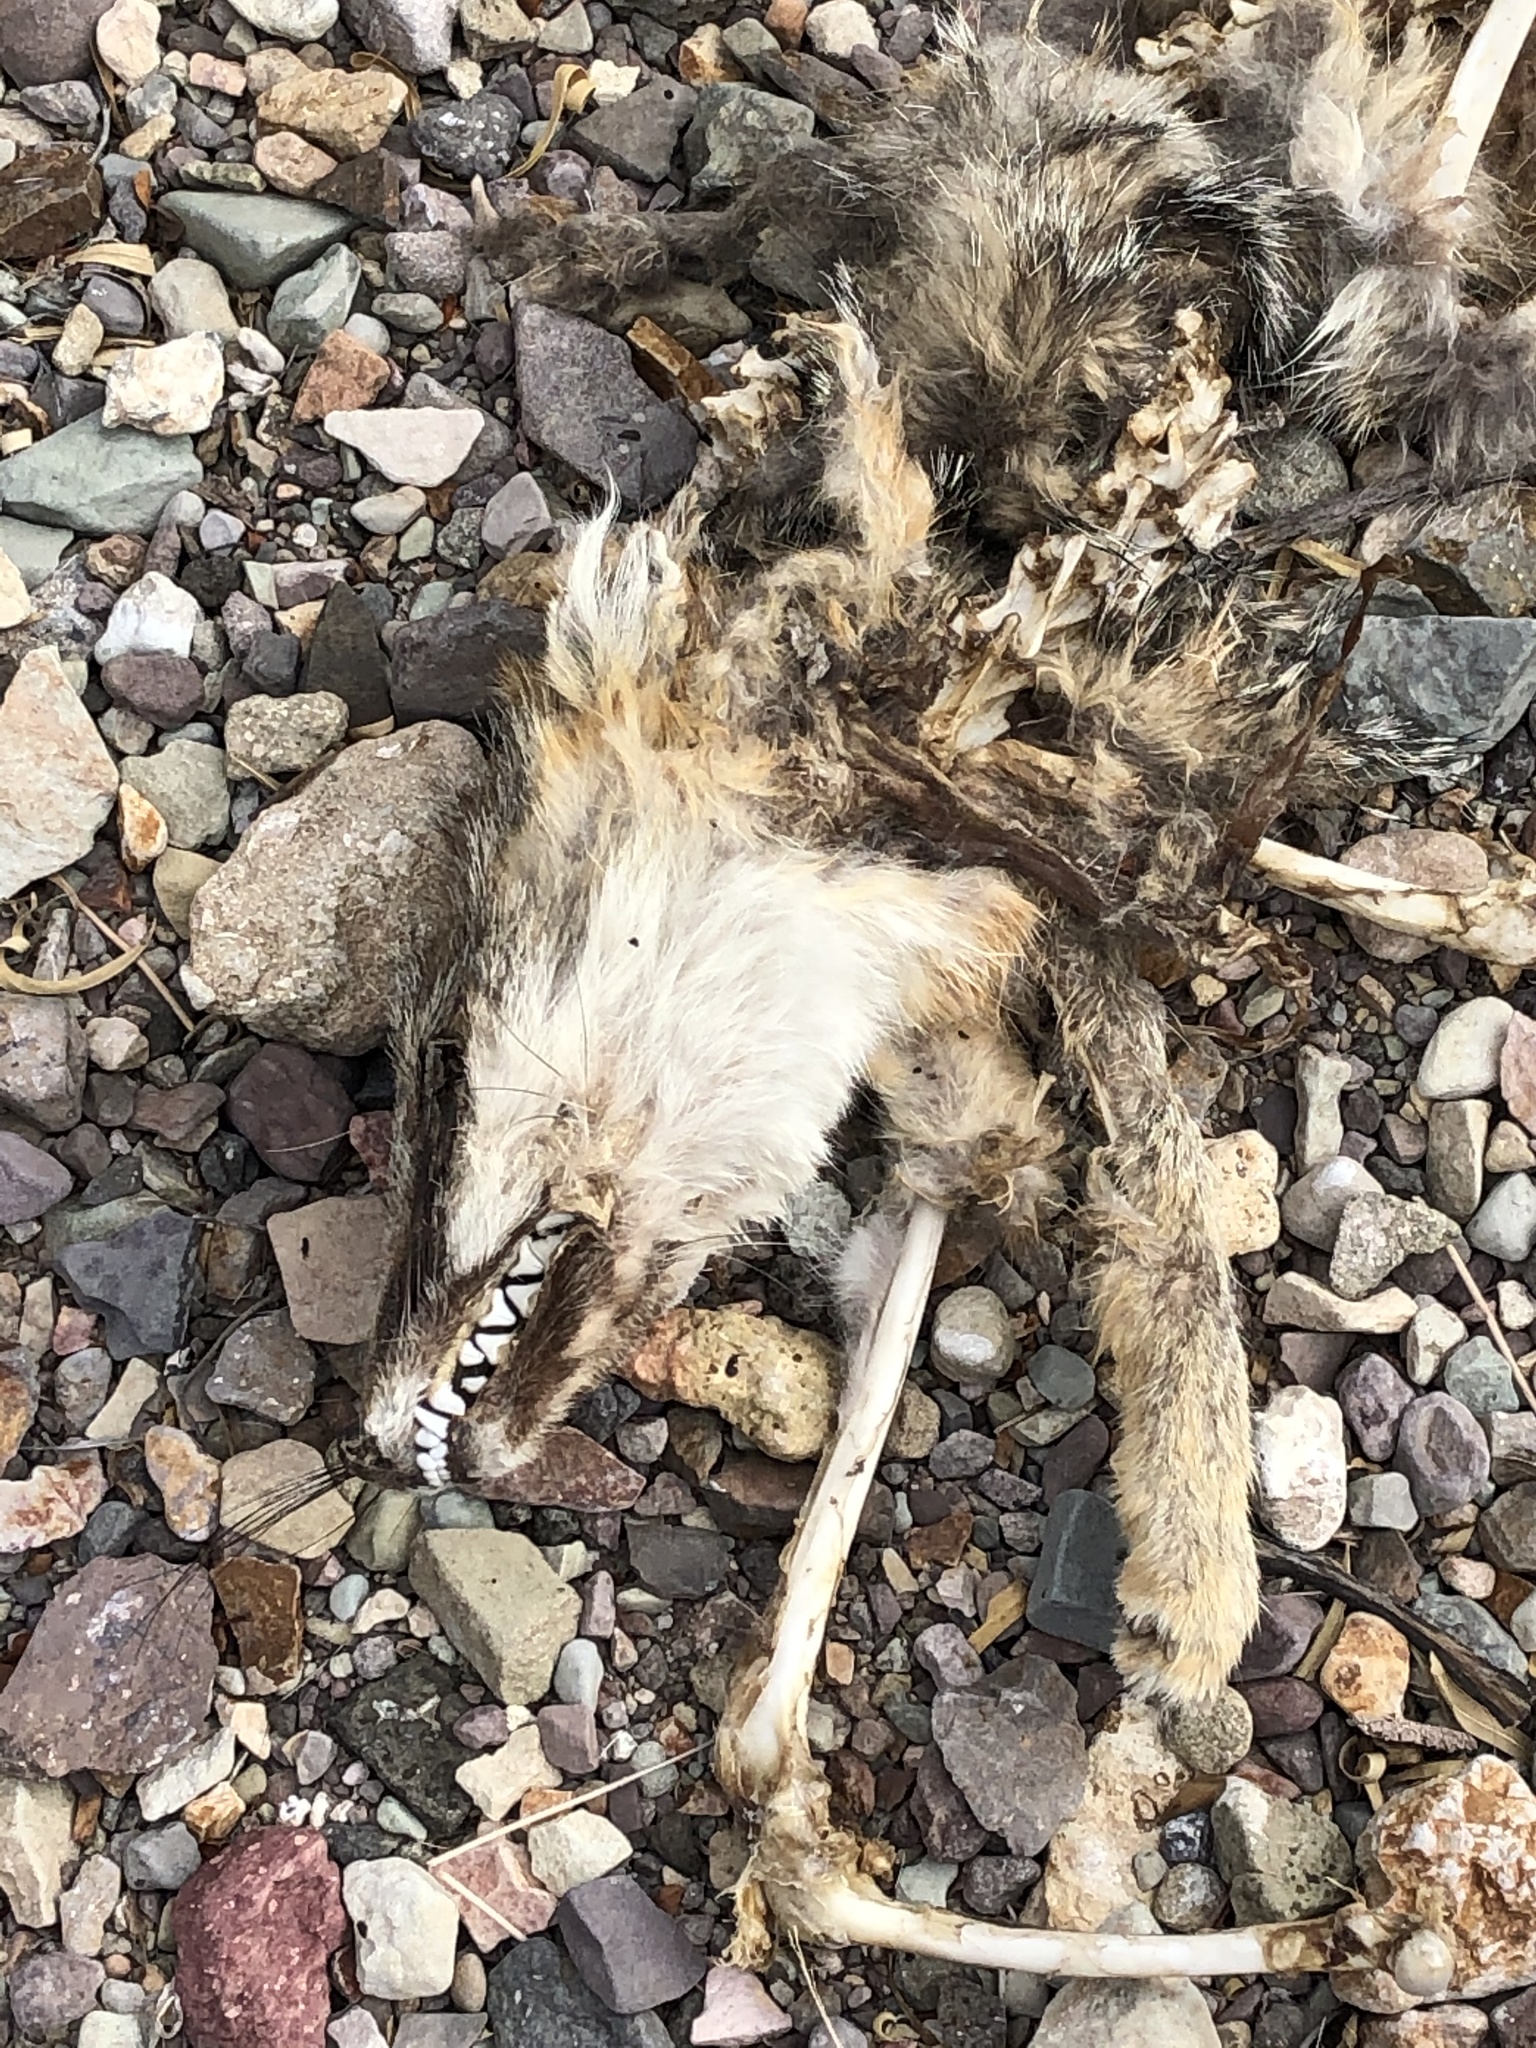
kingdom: Animalia
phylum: Chordata
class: Mammalia
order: Carnivora
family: Canidae
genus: Urocyon
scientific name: Urocyon cinereoargenteus
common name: Gray fox
